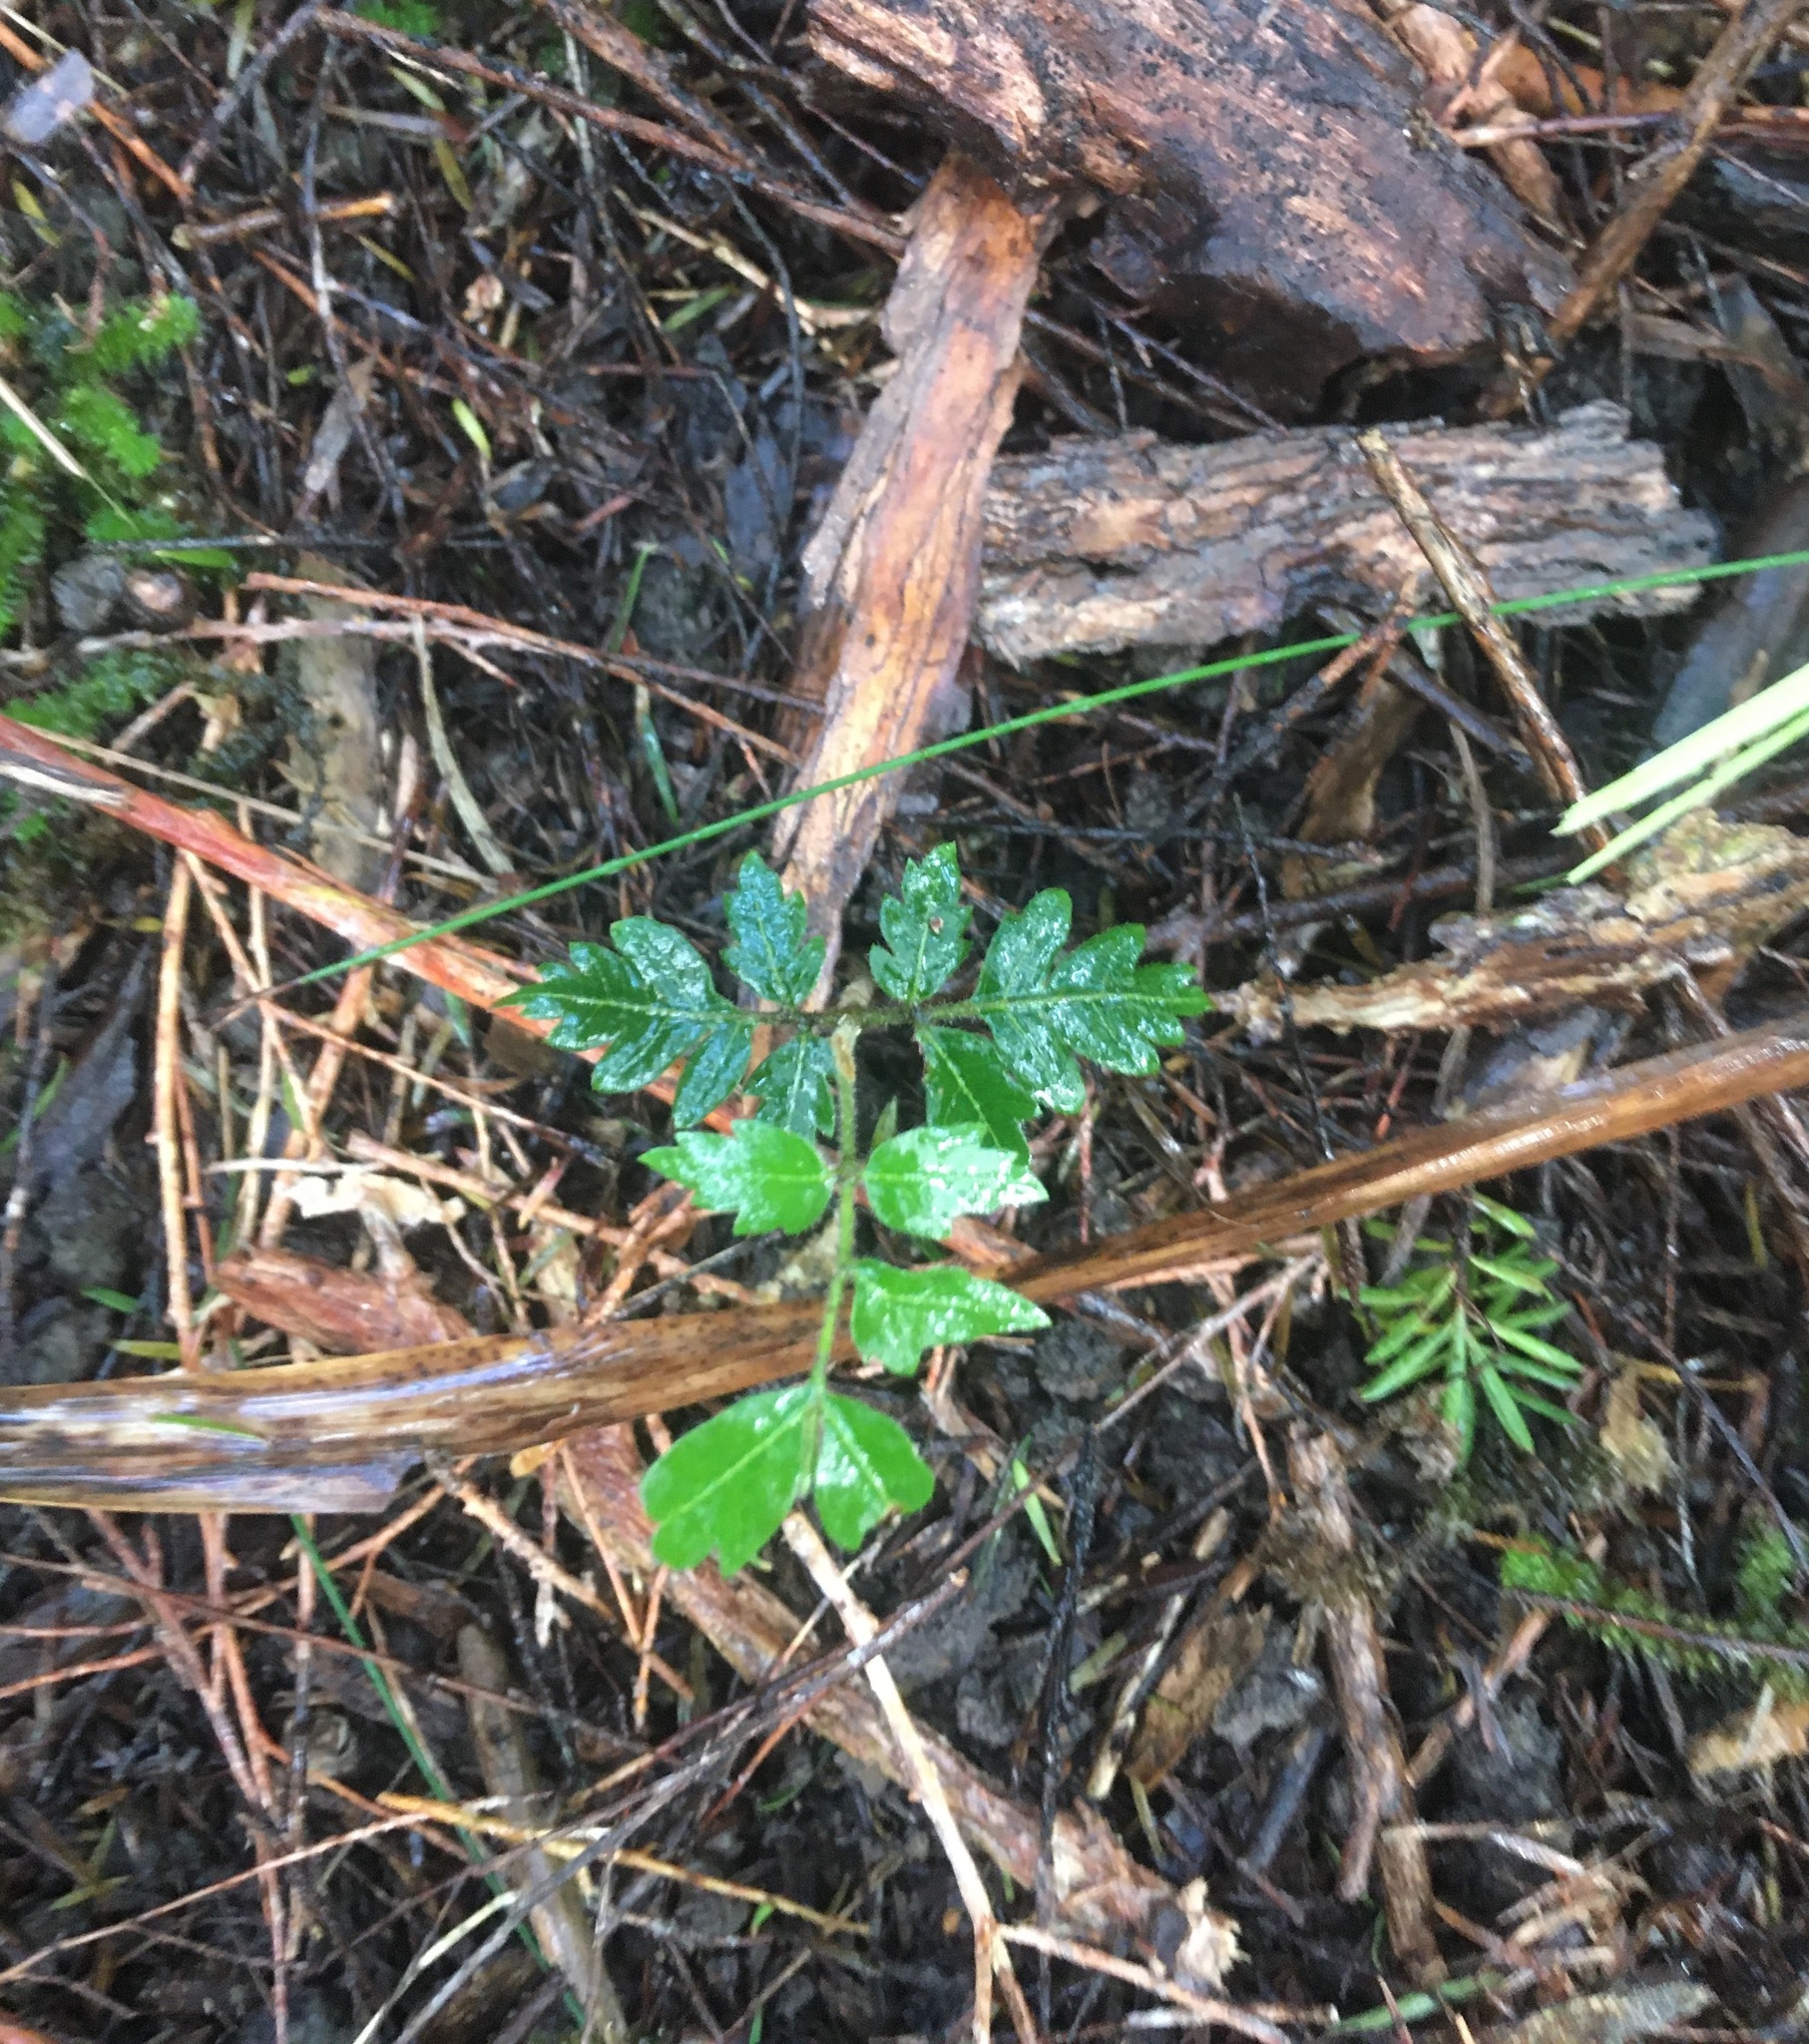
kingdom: Plantae
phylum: Tracheophyta
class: Magnoliopsida
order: Sapindales
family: Sapindaceae
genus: Alectryon
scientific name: Alectryon excelsus
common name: Three kings titoki
